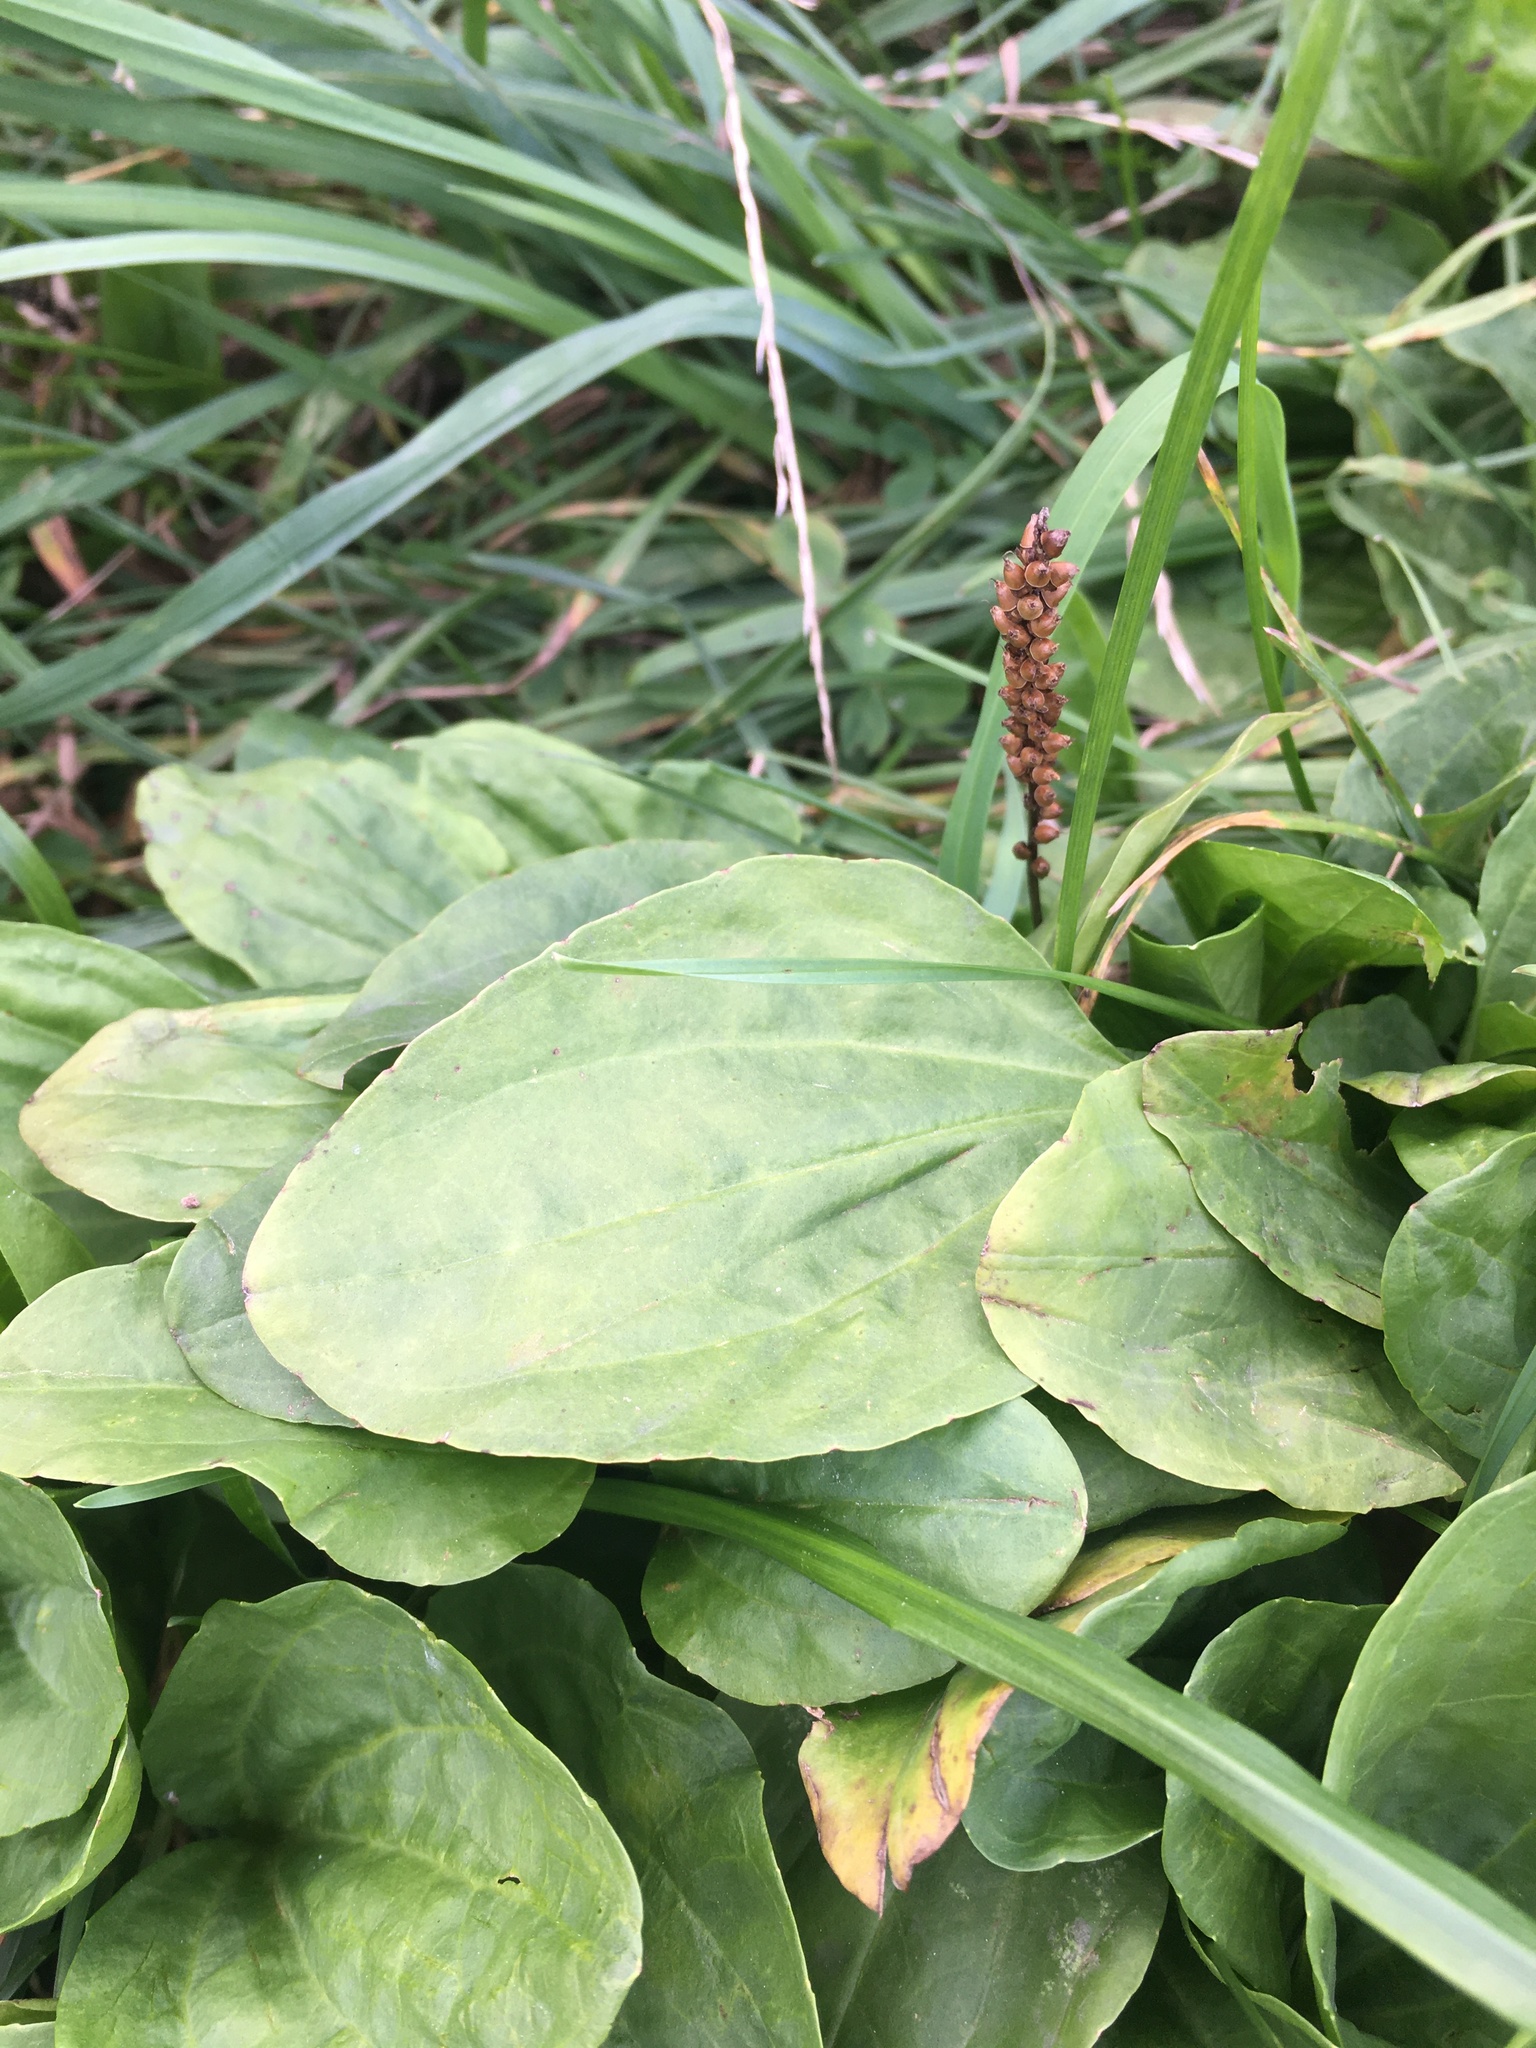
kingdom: Plantae
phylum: Tracheophyta
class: Magnoliopsida
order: Lamiales
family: Plantaginaceae
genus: Plantago
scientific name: Plantago major
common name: Common plantain
